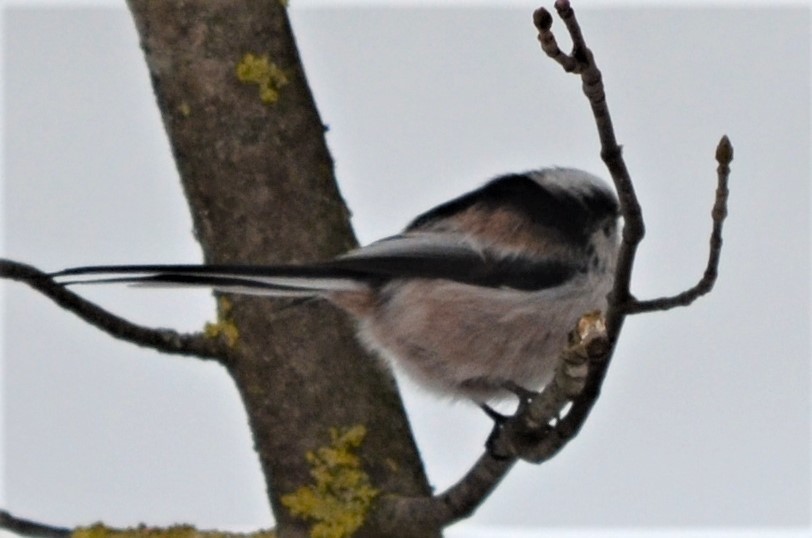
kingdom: Animalia
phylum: Chordata
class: Aves
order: Passeriformes
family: Aegithalidae
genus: Aegithalos
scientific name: Aegithalos caudatus
